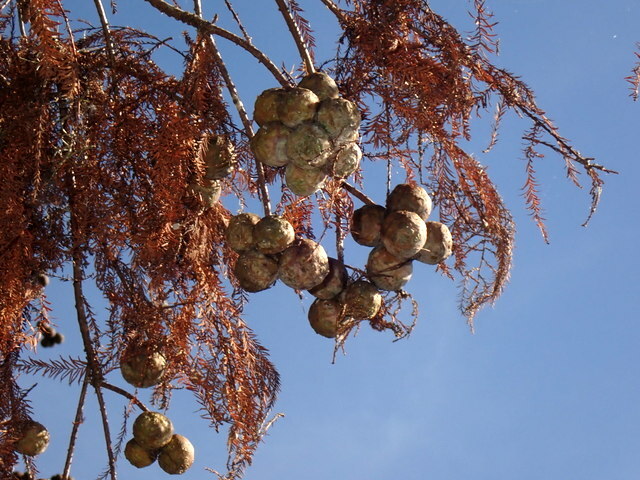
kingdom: Plantae
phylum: Tracheophyta
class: Pinopsida
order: Pinales
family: Cupressaceae
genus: Taxodium
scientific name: Taxodium distichum
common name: Bald cypress
